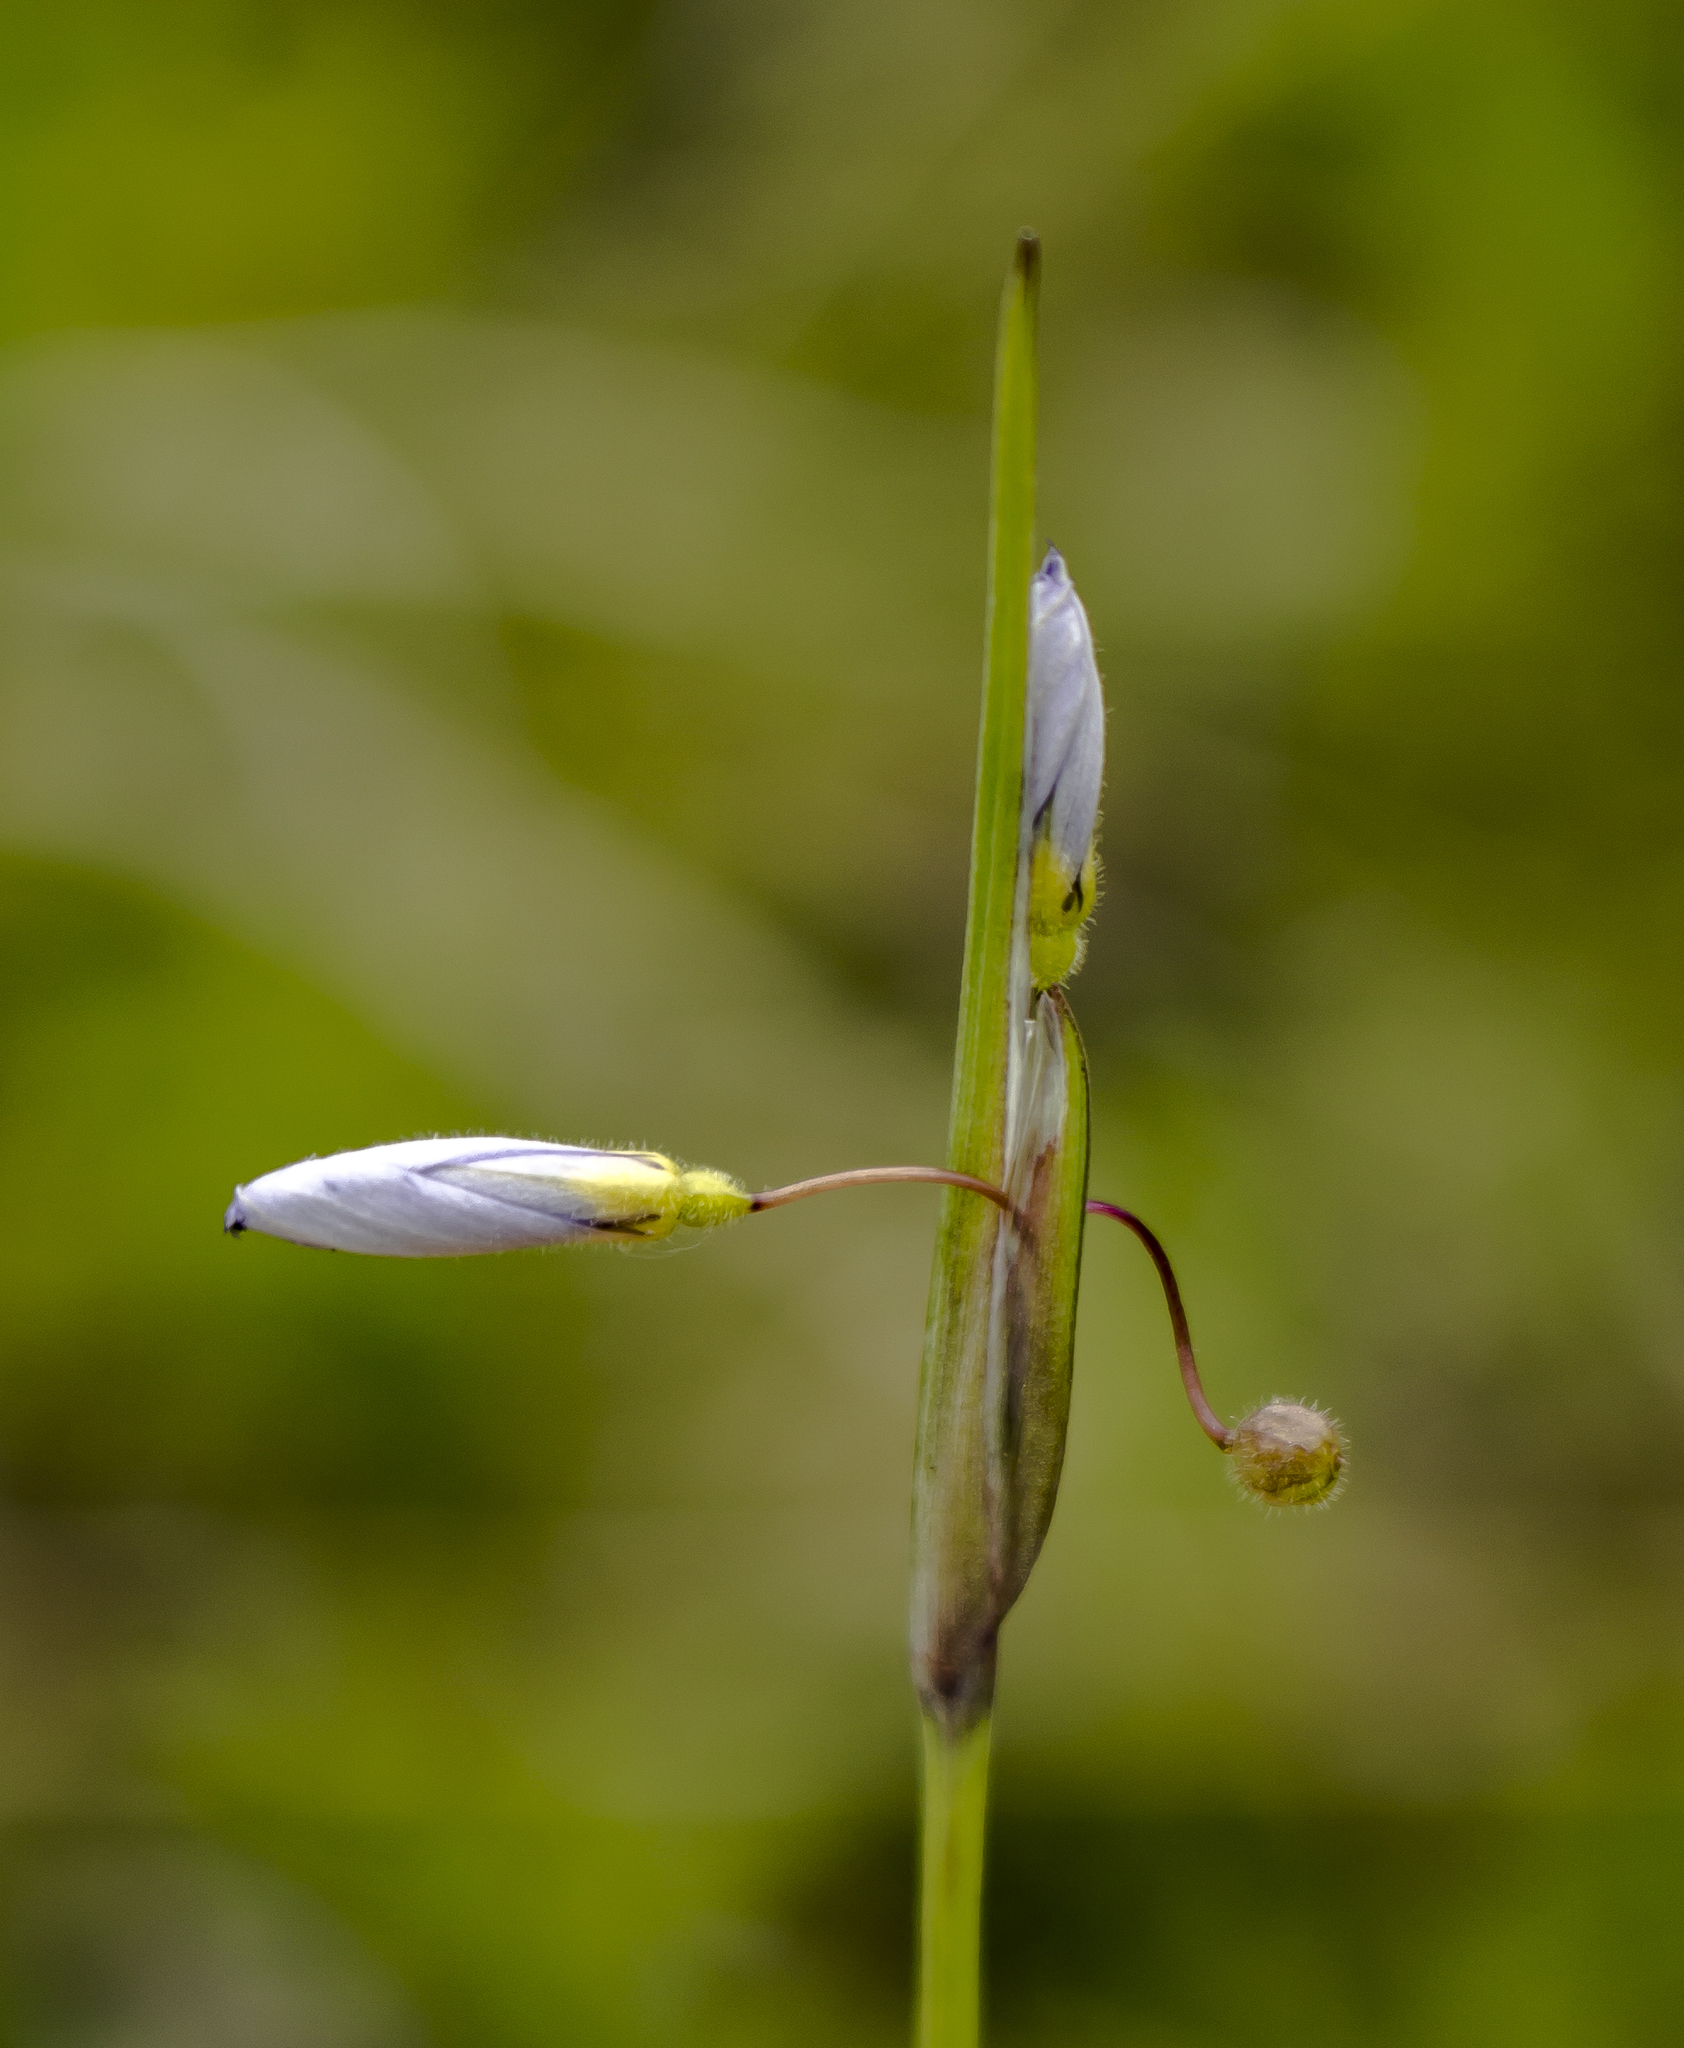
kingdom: Plantae
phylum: Tracheophyta
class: Liliopsida
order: Asparagales
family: Iridaceae
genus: Sisyrinchium
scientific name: Sisyrinchium campestre
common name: Prairie blue-eyed-grass
